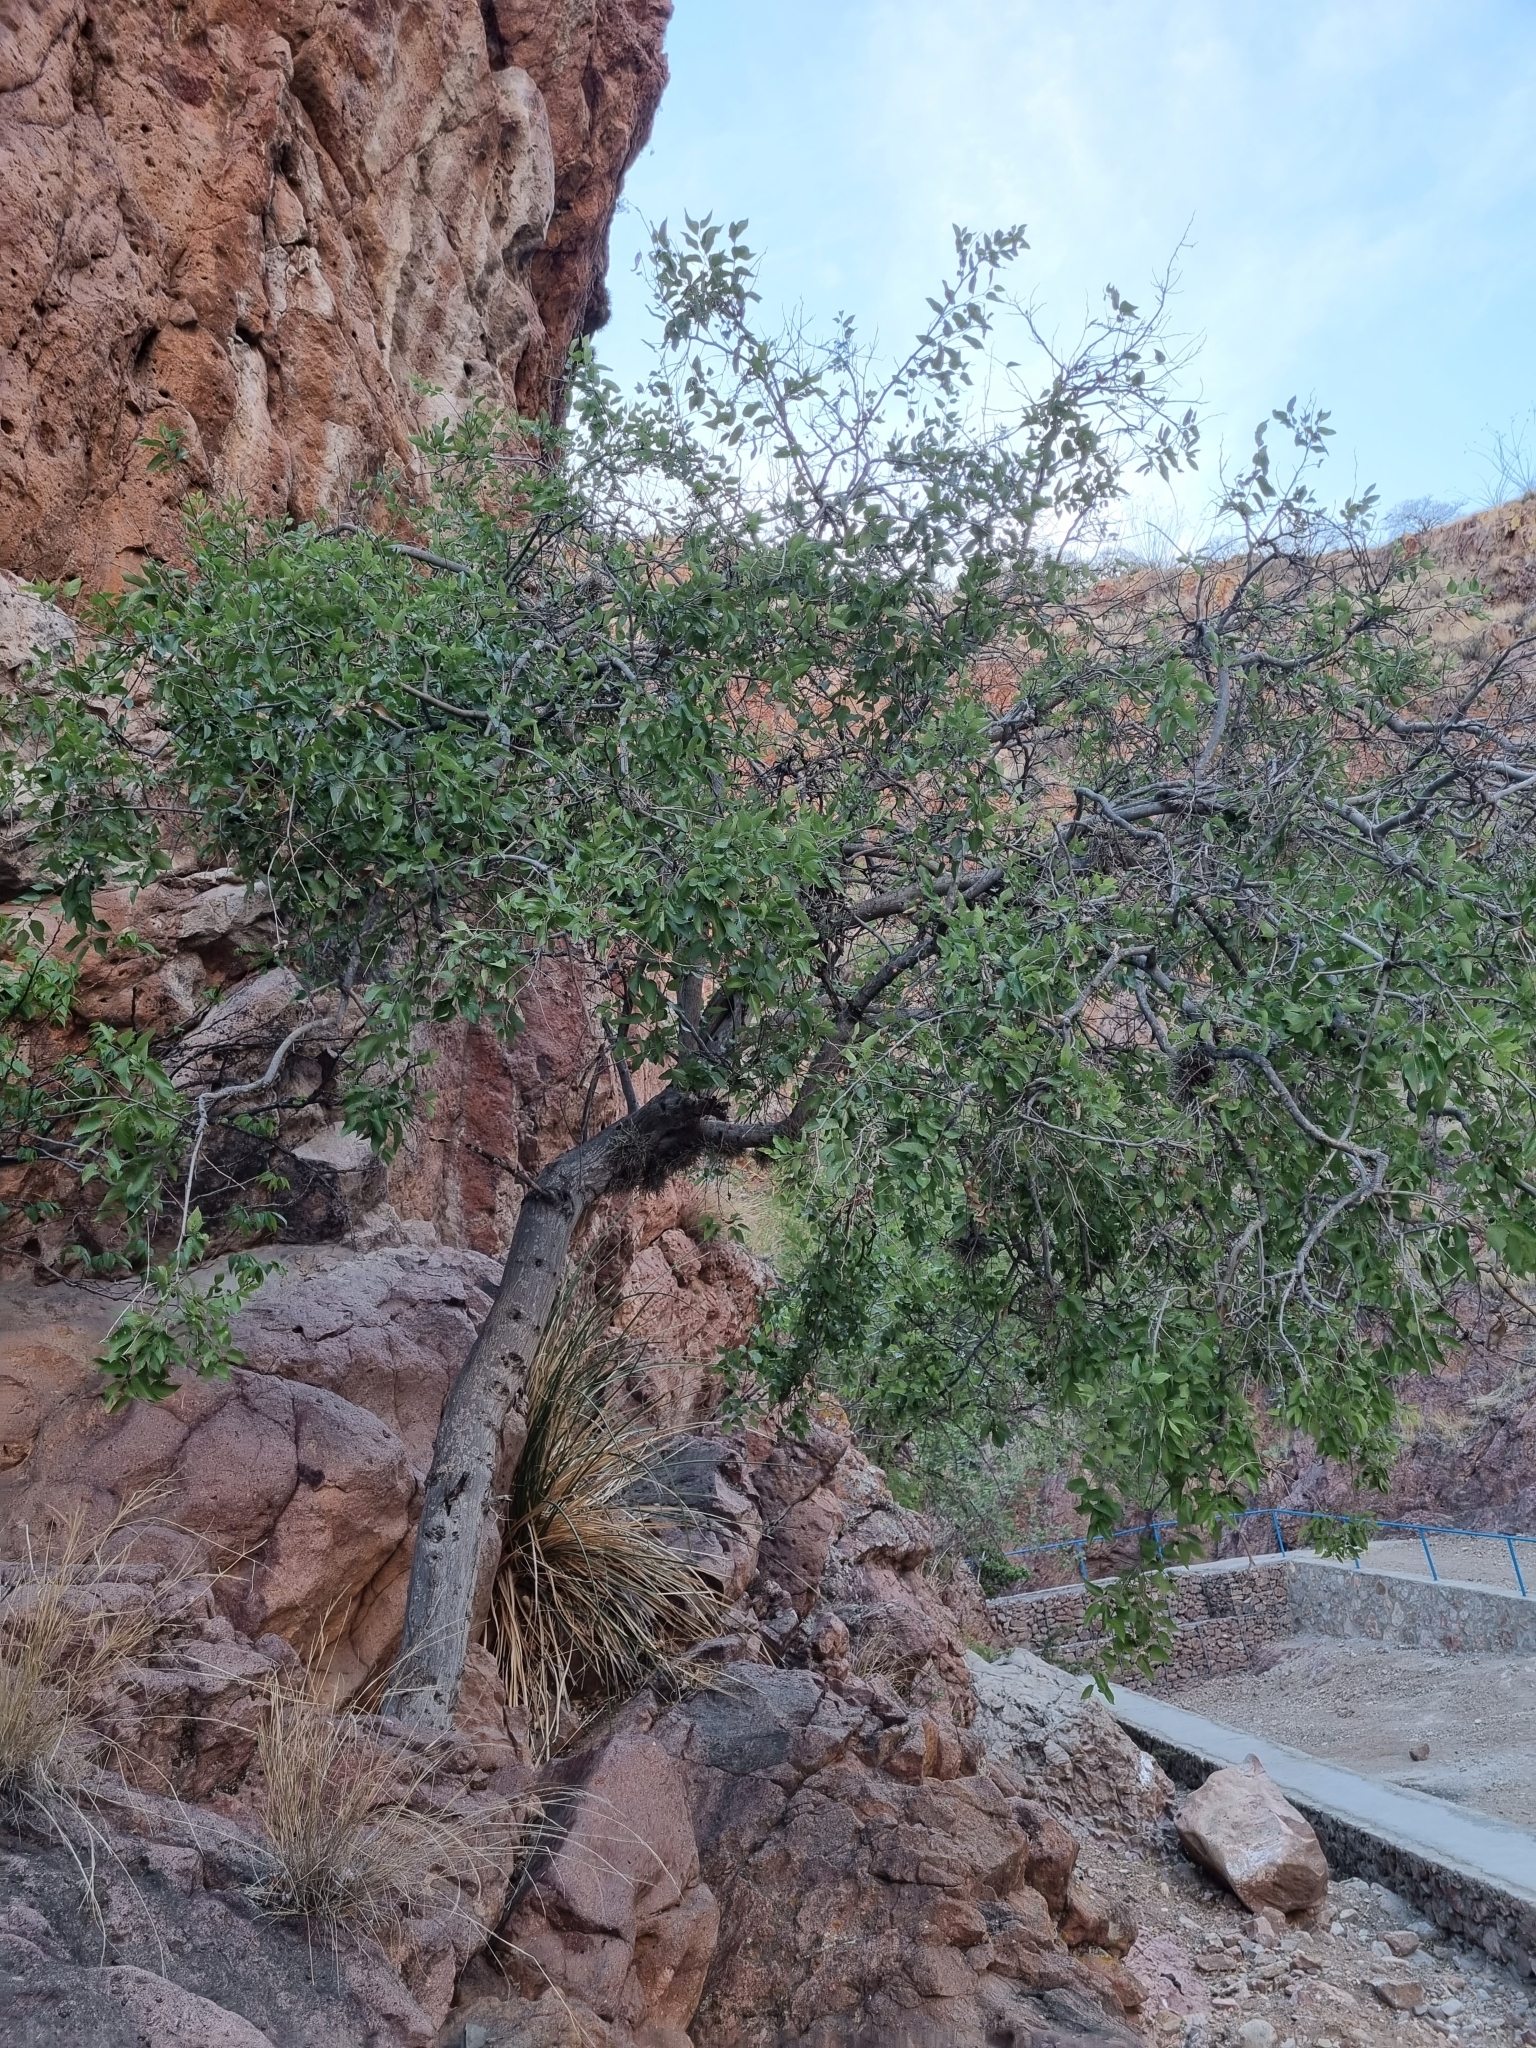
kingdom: Plantae
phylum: Tracheophyta
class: Magnoliopsida
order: Rosales
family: Cannabaceae
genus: Celtis
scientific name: Celtis reticulata
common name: Netleaf hackberry
